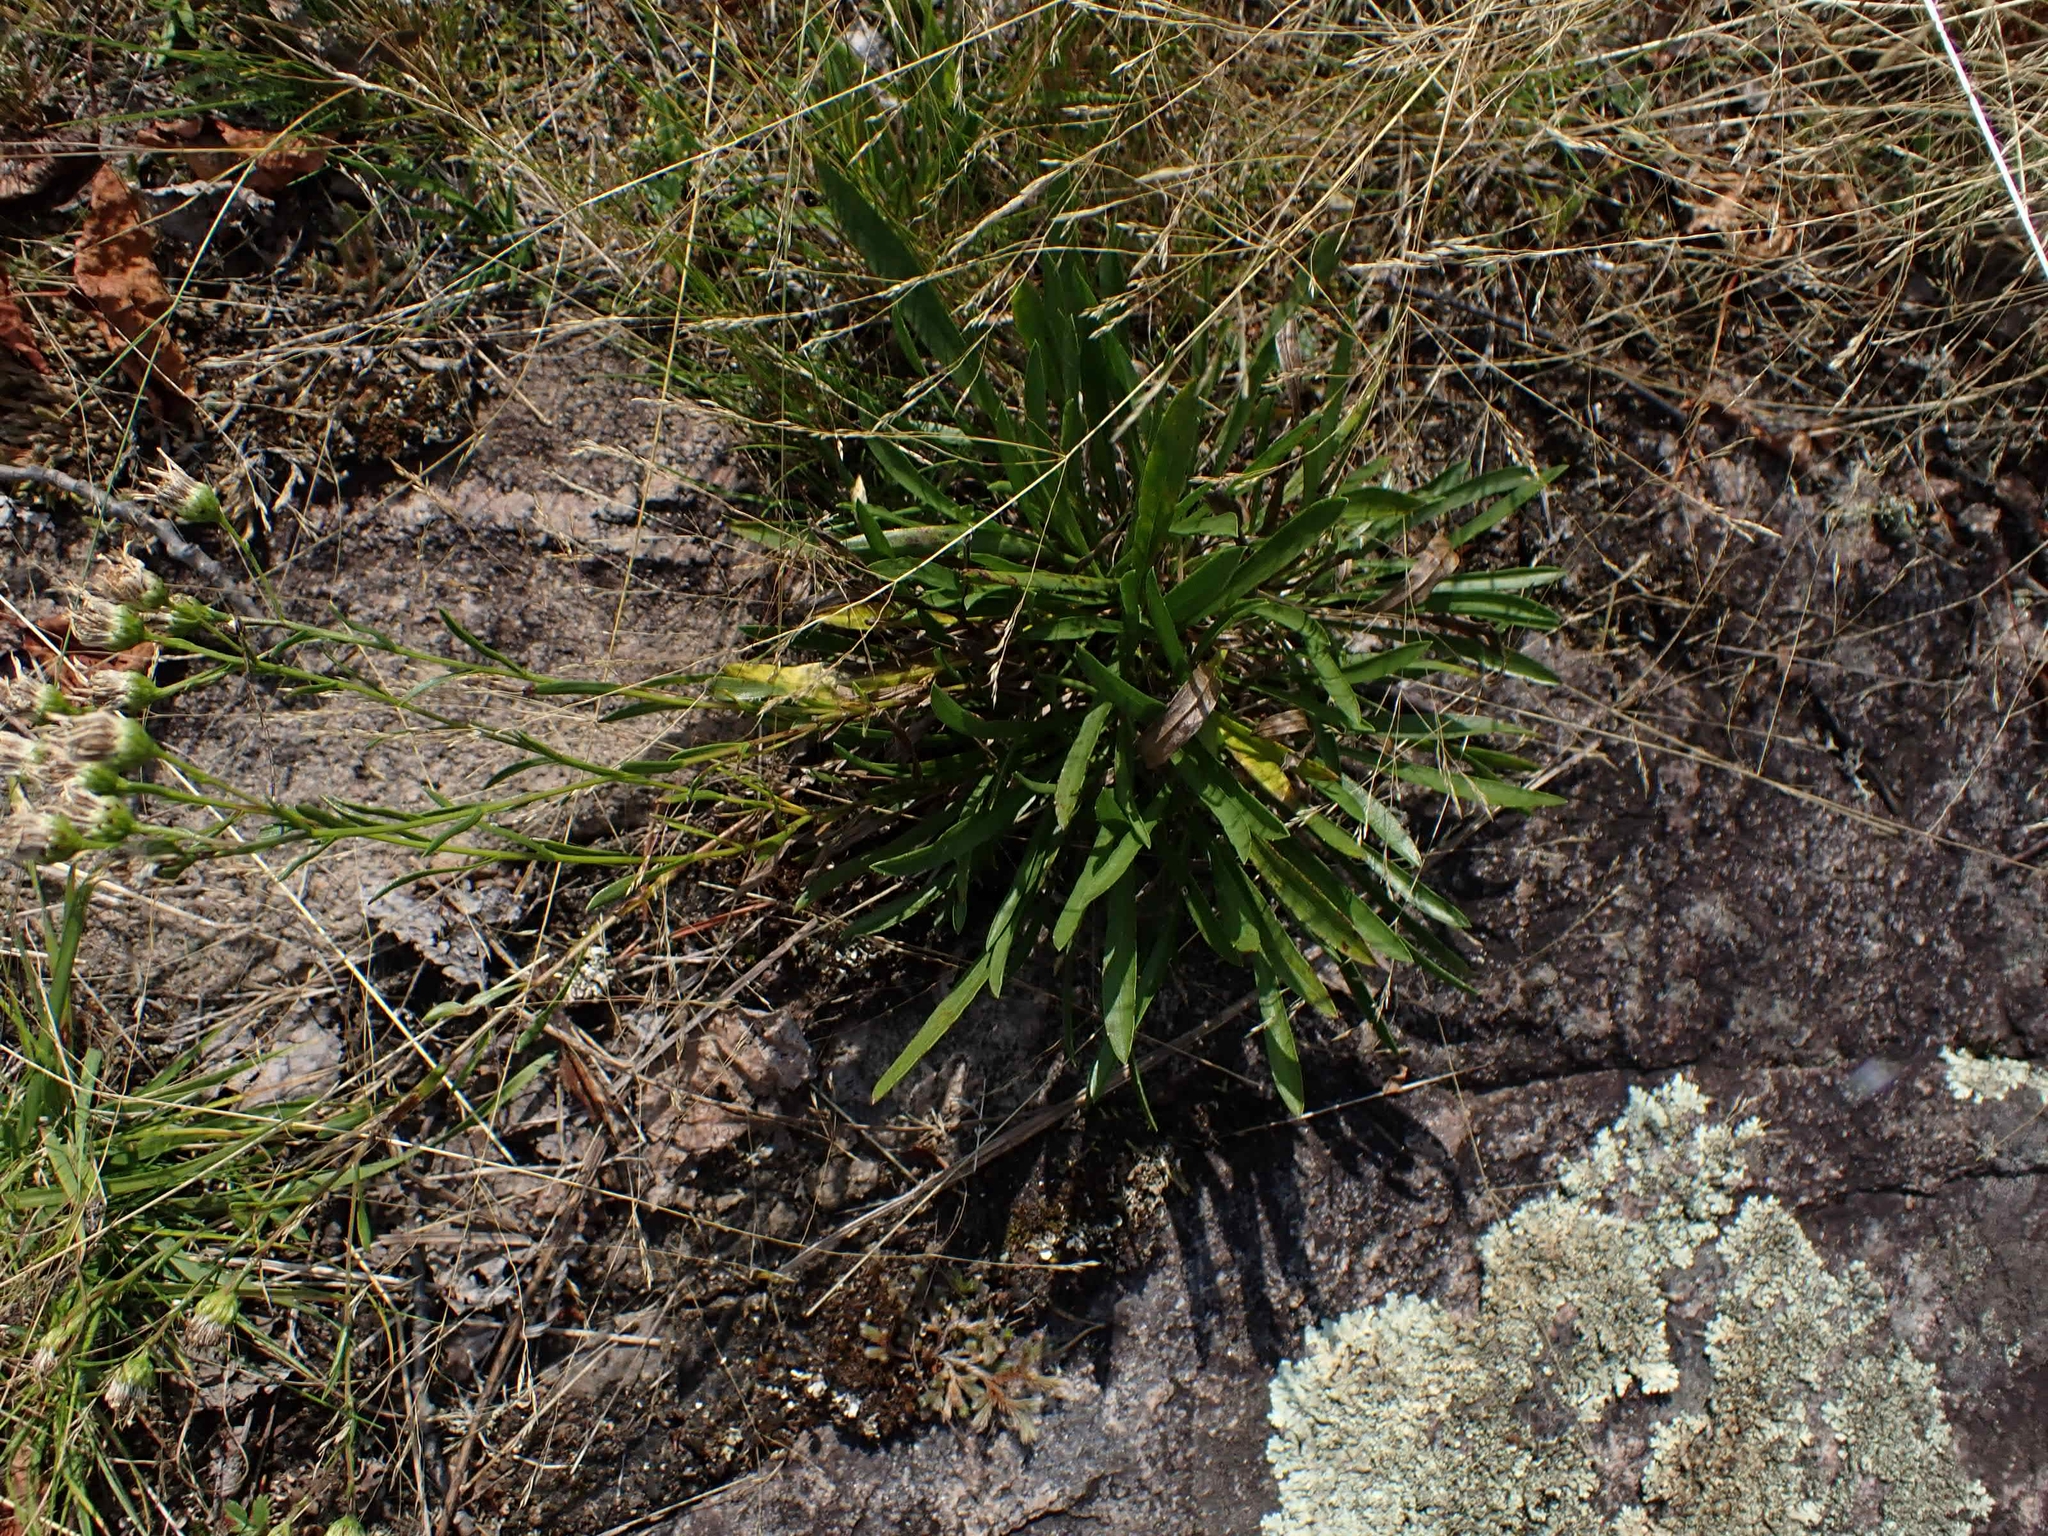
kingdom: Plantae
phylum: Tracheophyta
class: Magnoliopsida
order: Asterales
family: Asteraceae
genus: Solidago
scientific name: Solidago ptarmicoides
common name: White flat-top goldenrod
